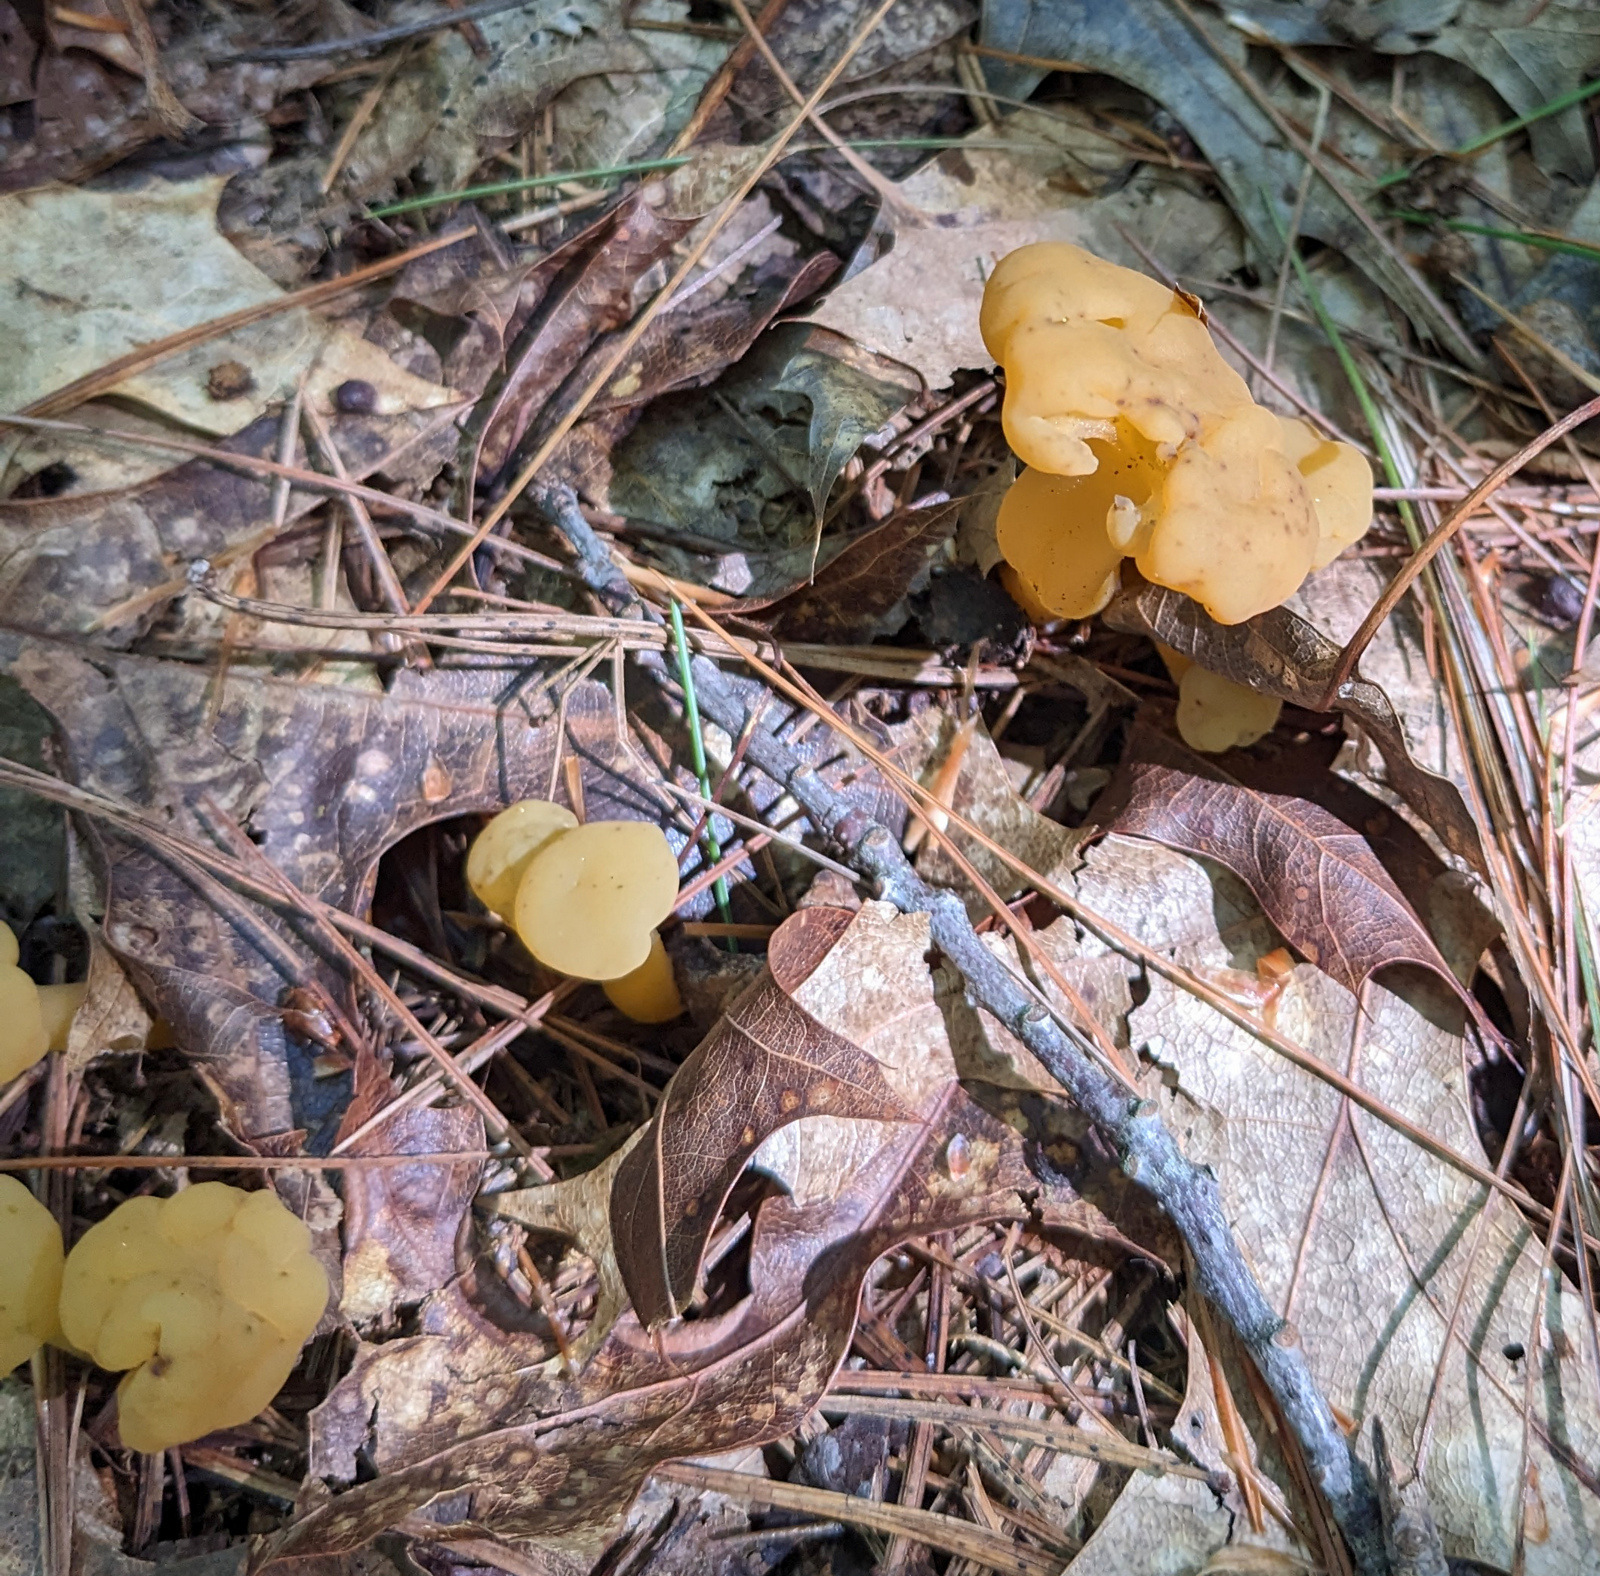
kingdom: Fungi
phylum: Ascomycota
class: Leotiomycetes
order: Leotiales
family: Leotiaceae
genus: Leotia
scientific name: Leotia lubrica
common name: Jellybaby
